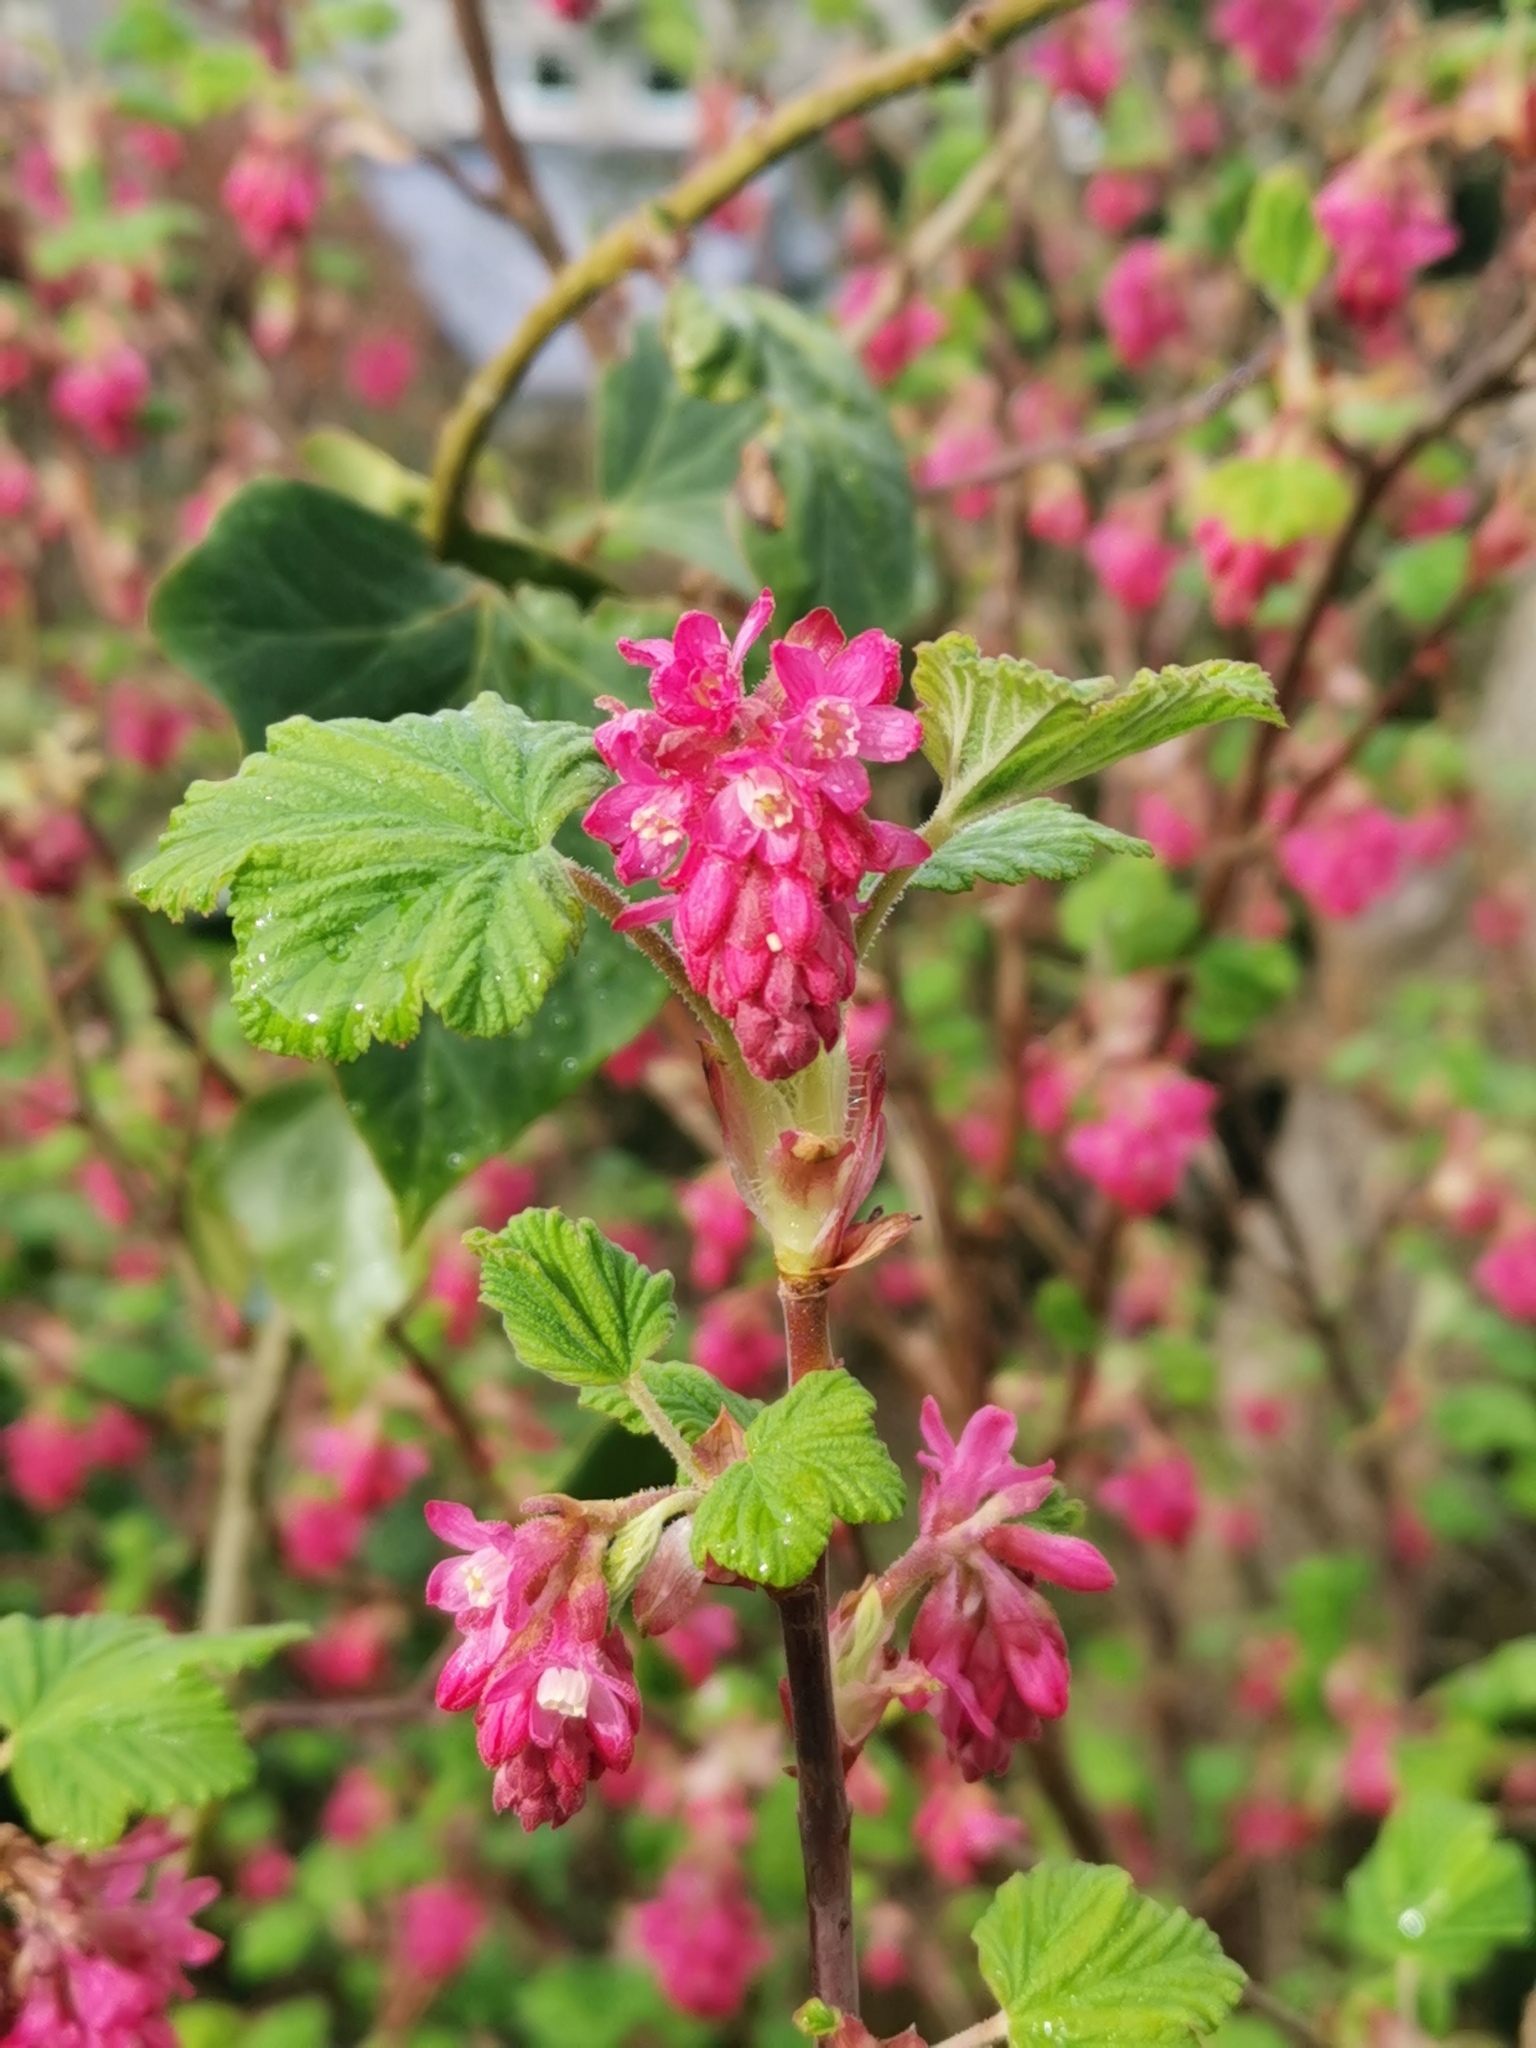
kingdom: Plantae
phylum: Tracheophyta
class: Magnoliopsida
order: Saxifragales
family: Grossulariaceae
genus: Ribes
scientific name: Ribes sanguineum
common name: Flowering currant
